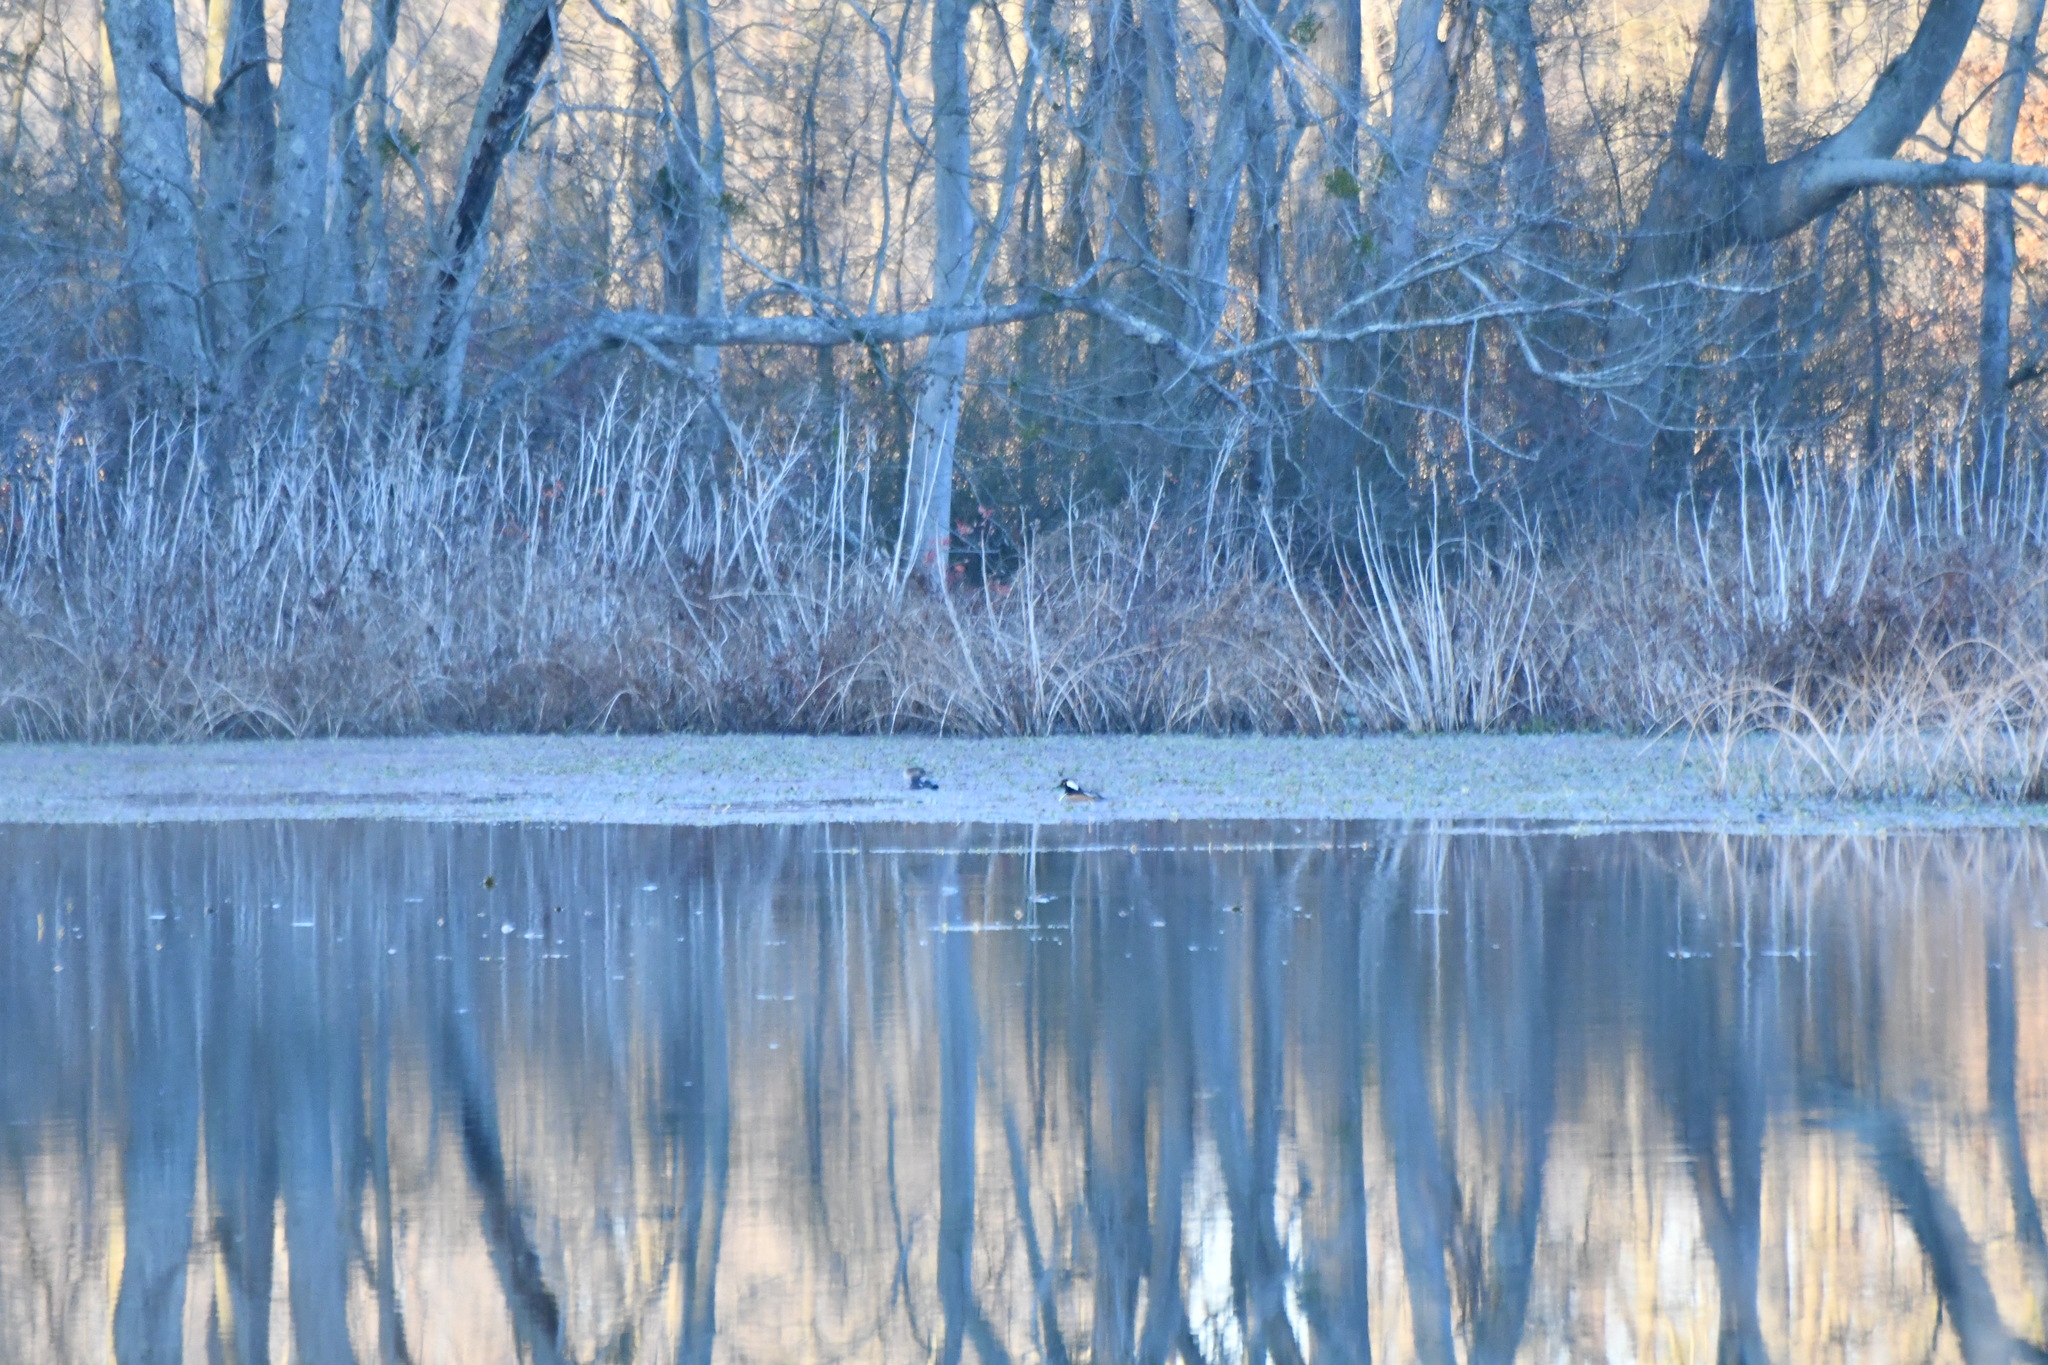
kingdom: Animalia
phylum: Chordata
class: Aves
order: Anseriformes
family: Anatidae
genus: Lophodytes
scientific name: Lophodytes cucullatus
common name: Hooded merganser
